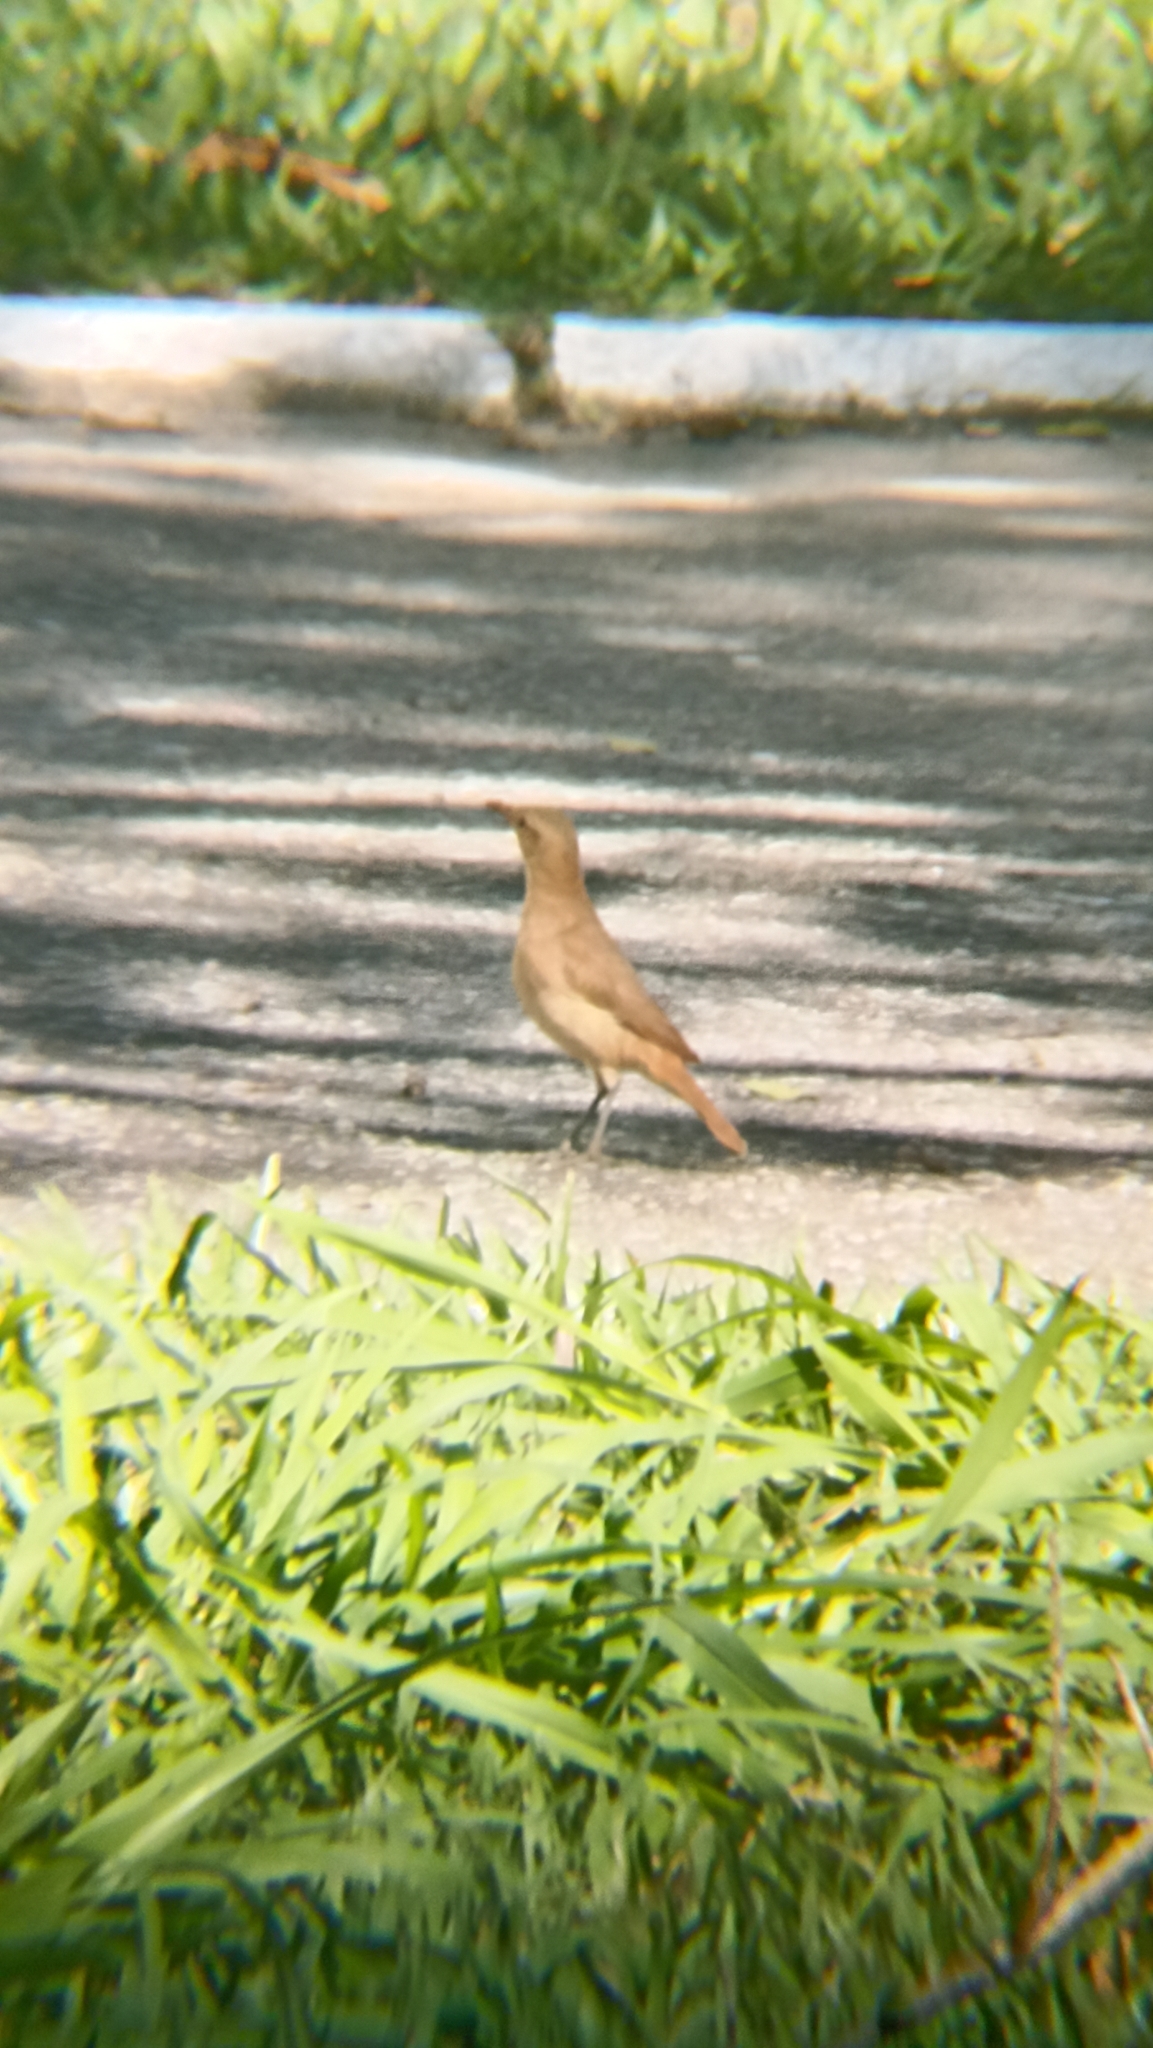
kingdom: Animalia
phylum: Chordata
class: Aves
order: Passeriformes
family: Furnariidae
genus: Furnarius
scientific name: Furnarius rufus
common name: Rufous hornero
